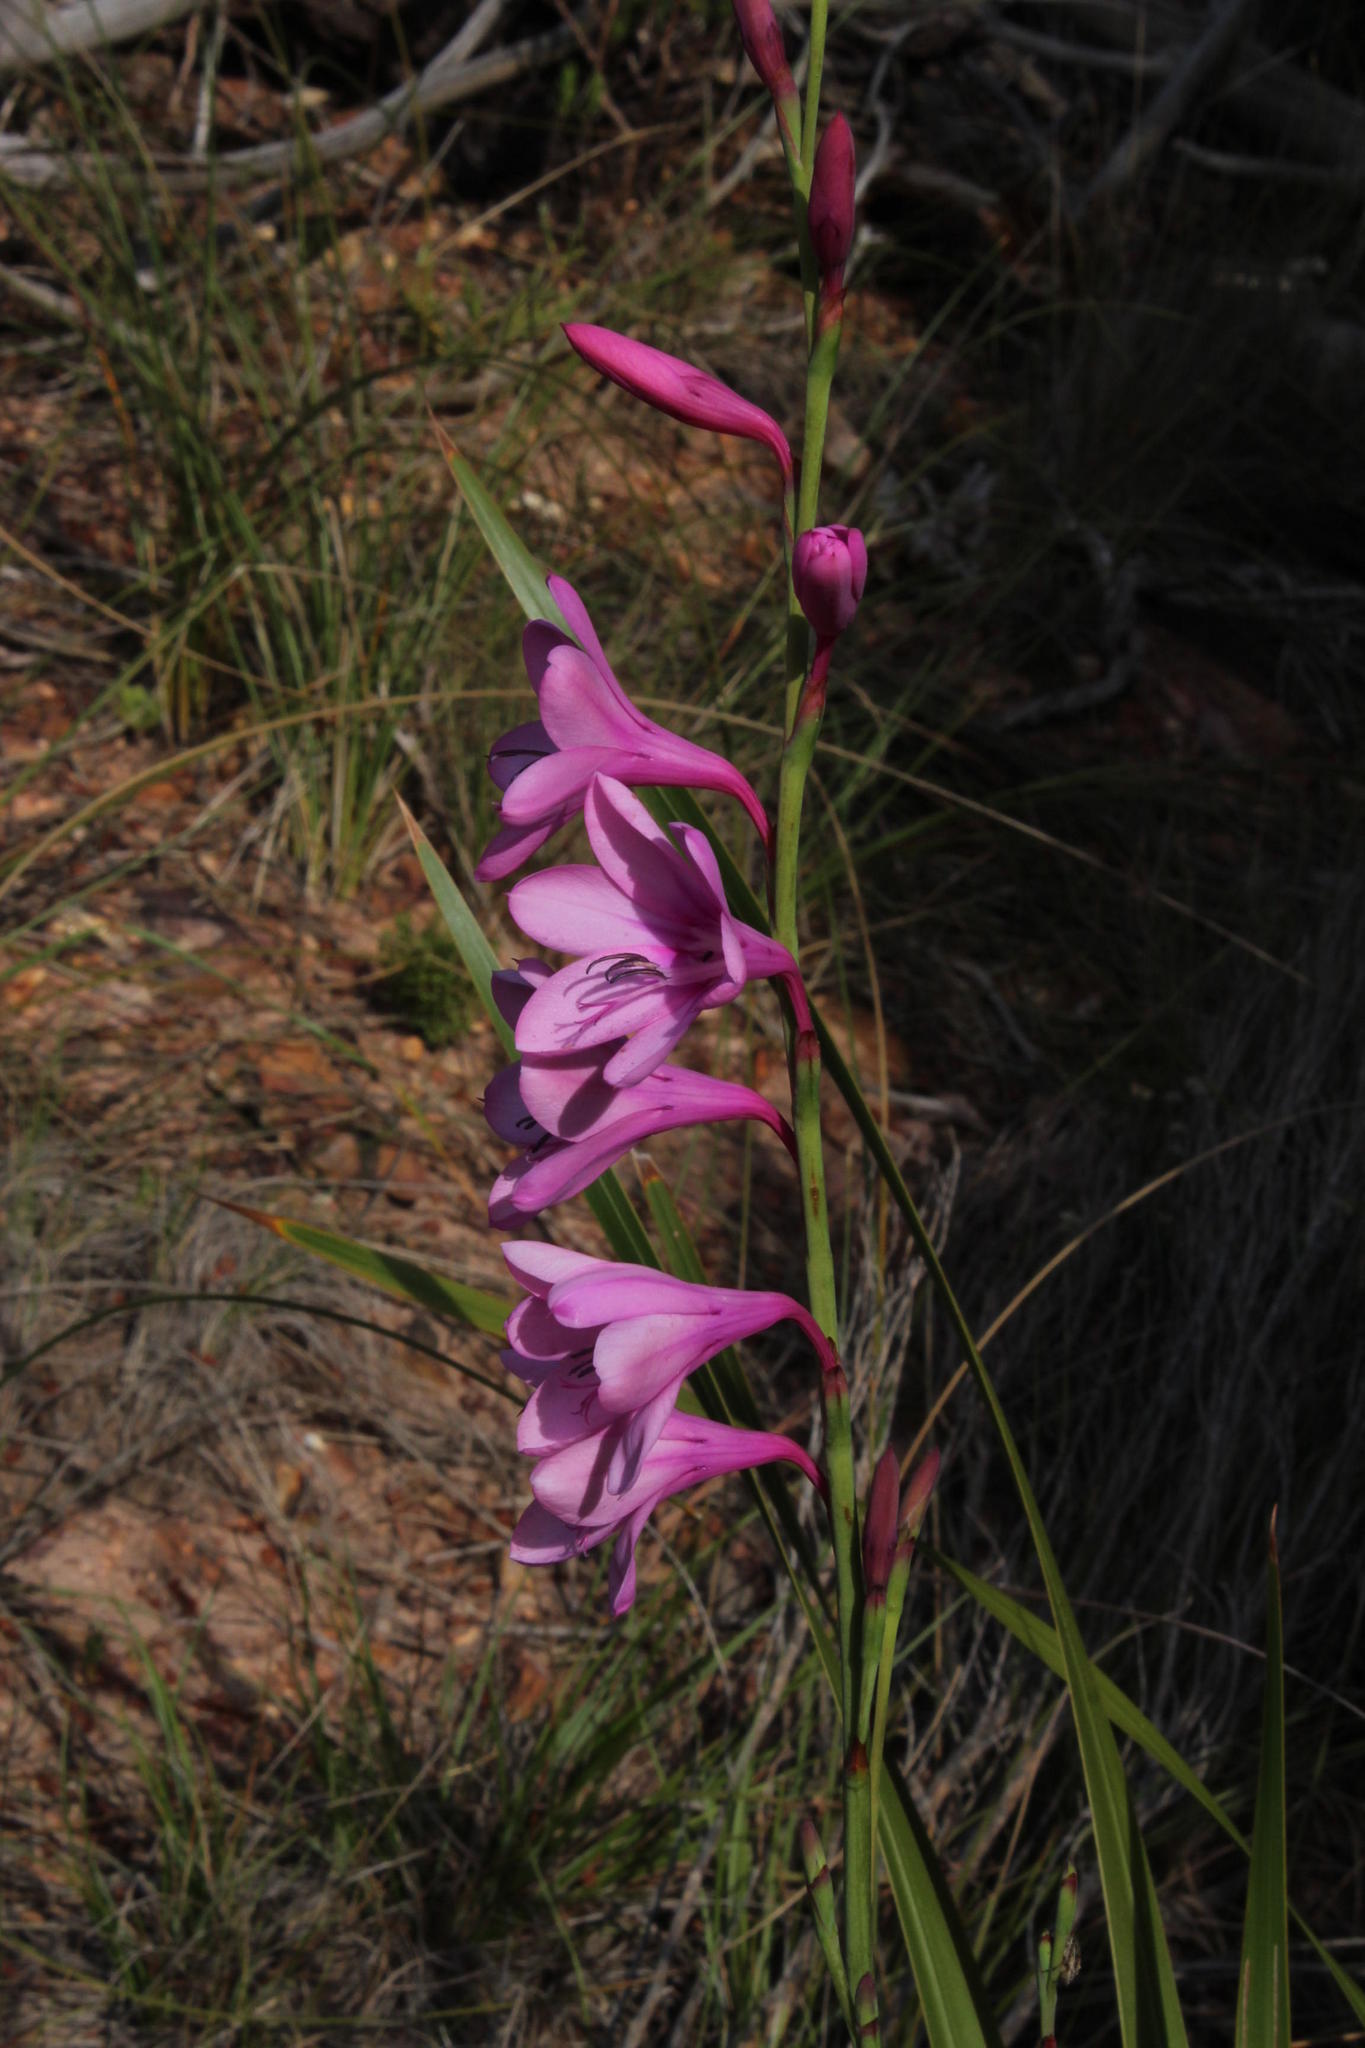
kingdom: Plantae
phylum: Tracheophyta
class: Liliopsida
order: Asparagales
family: Iridaceae
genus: Watsonia
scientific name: Watsonia borbonica
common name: Bugle-lily
